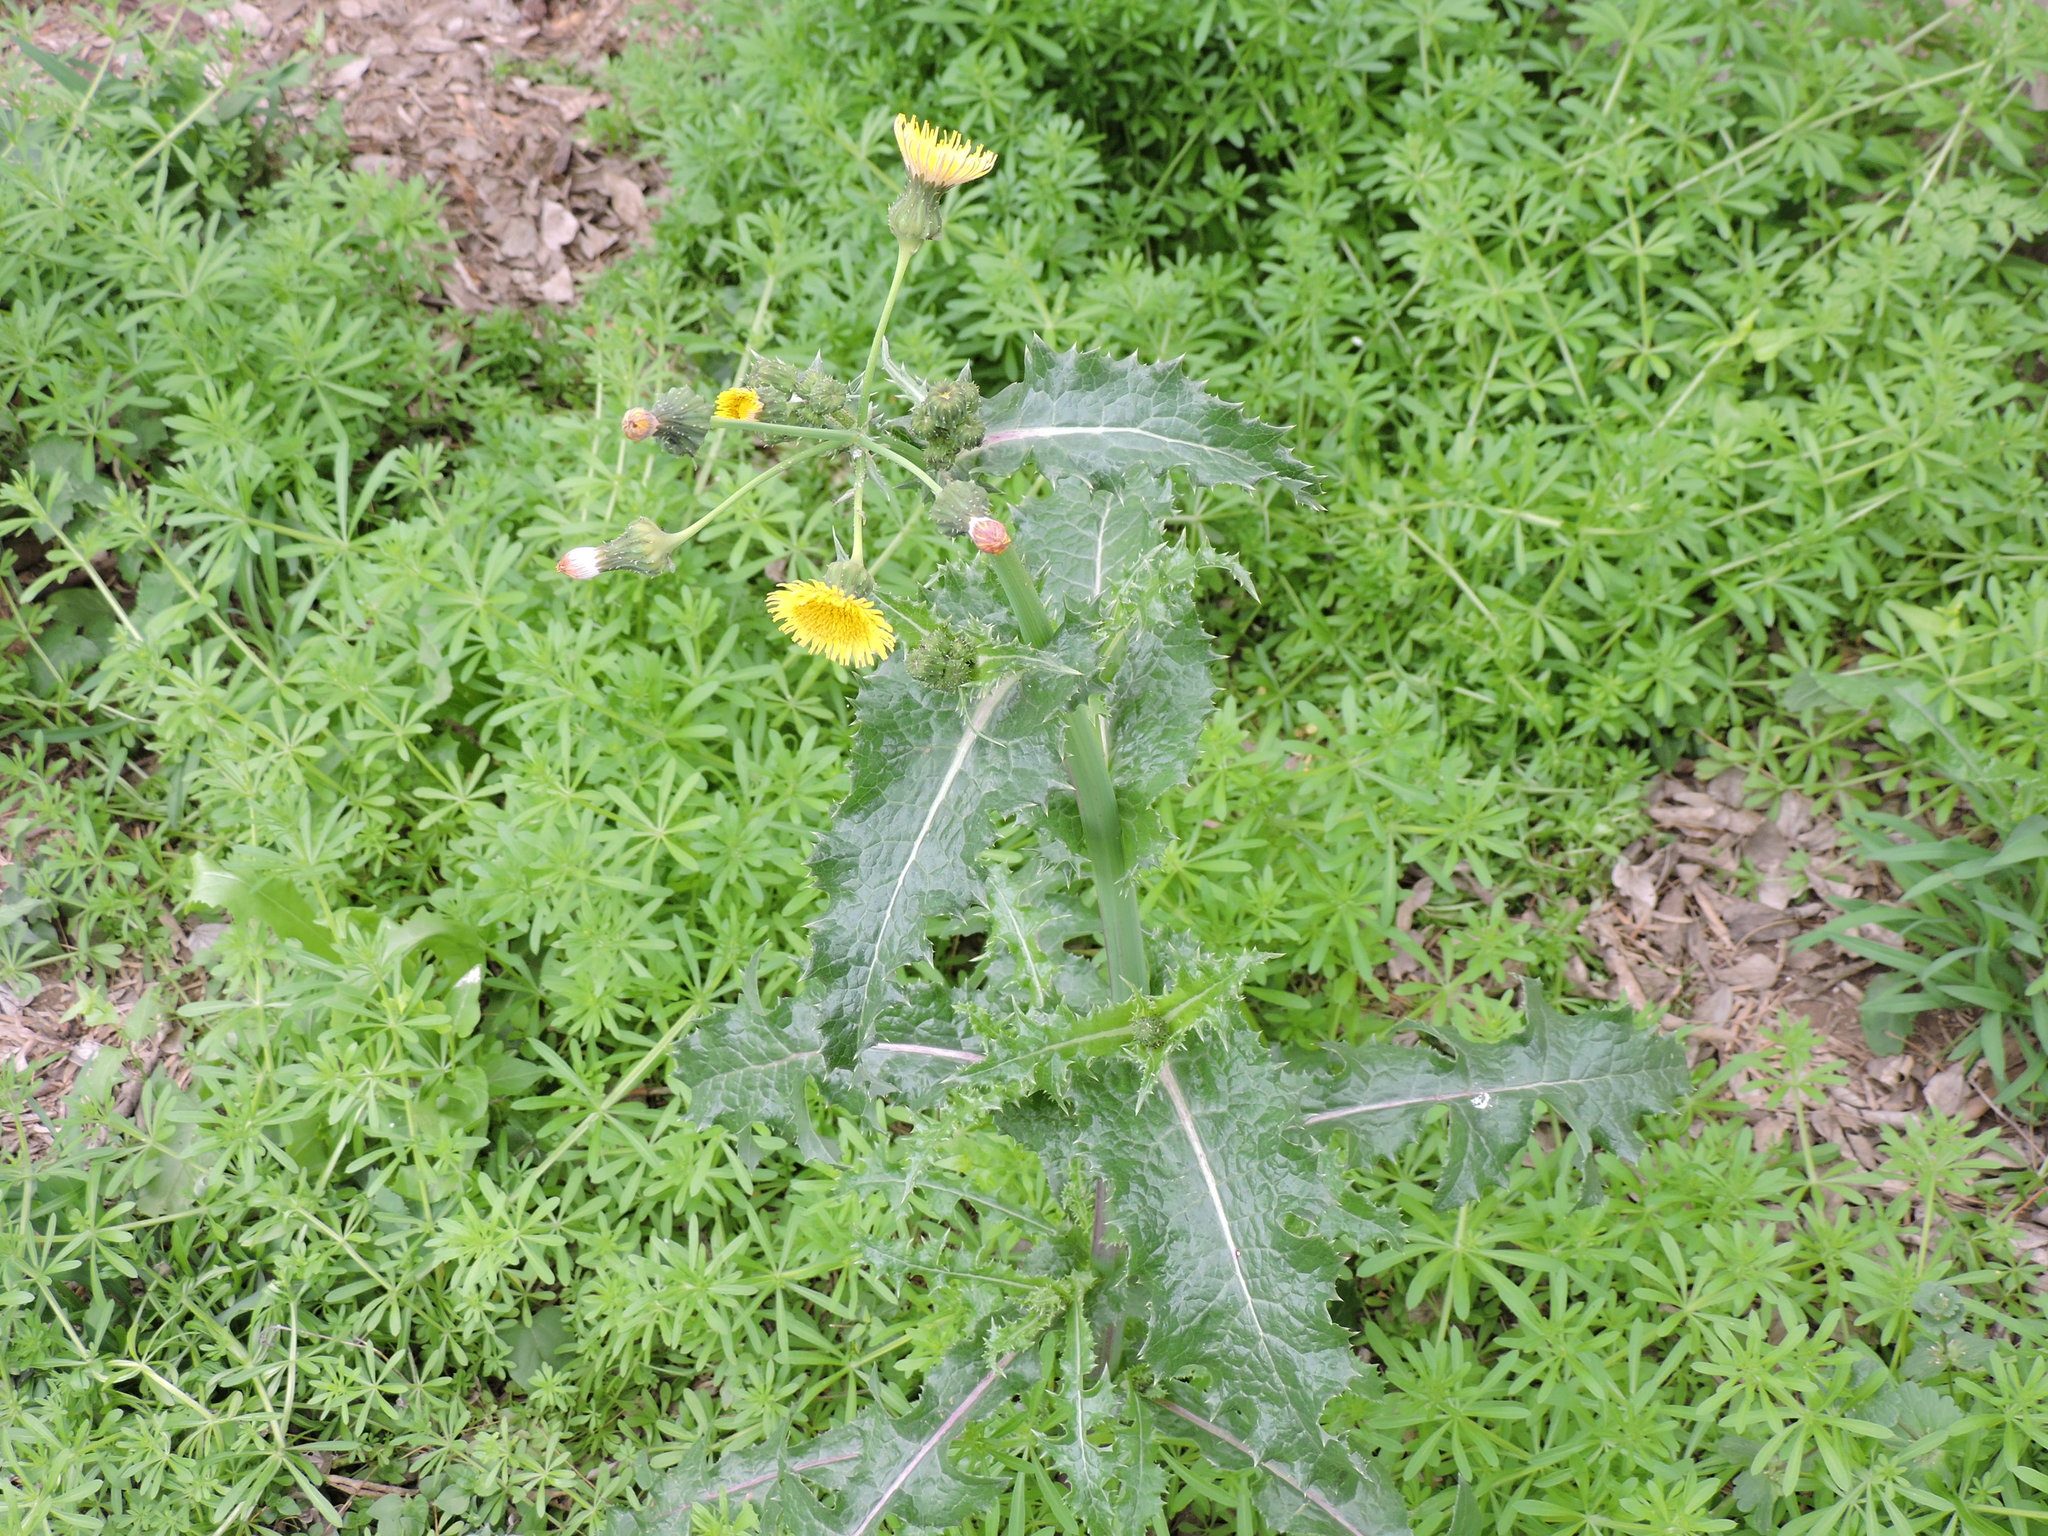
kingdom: Plantae
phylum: Tracheophyta
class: Magnoliopsida
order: Asterales
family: Asteraceae
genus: Sonchus
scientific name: Sonchus asper
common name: Prickly sow-thistle
